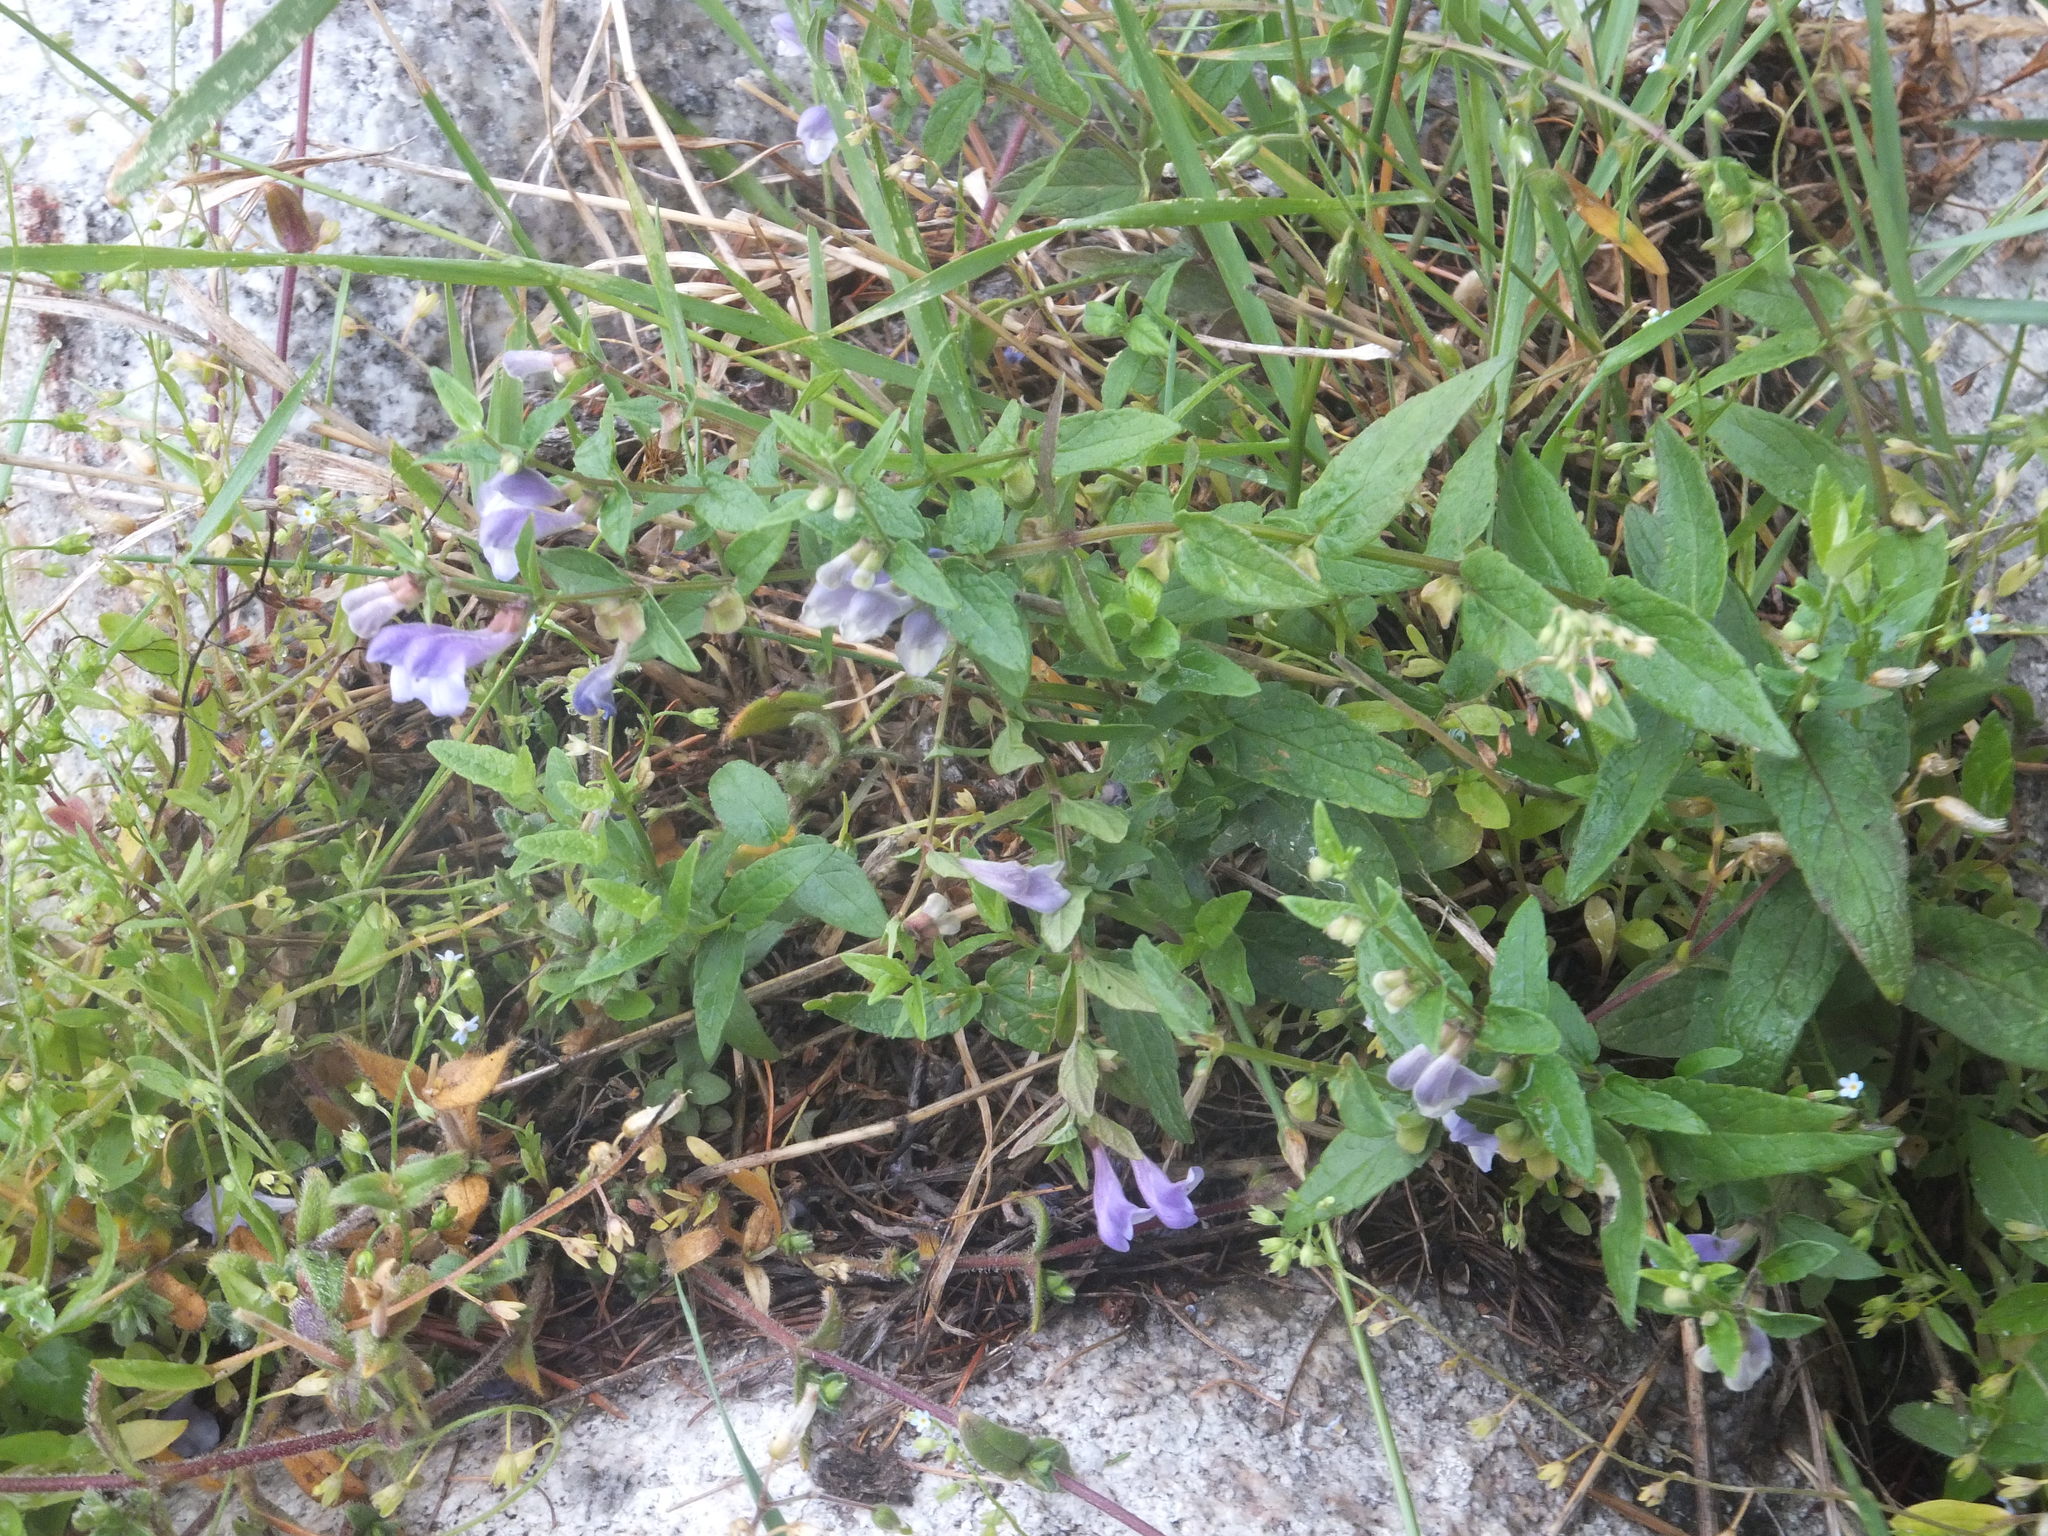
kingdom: Plantae
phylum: Tracheophyta
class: Magnoliopsida
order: Lamiales
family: Lamiaceae
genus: Scutellaria
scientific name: Scutellaria galericulata
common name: Skullcap
